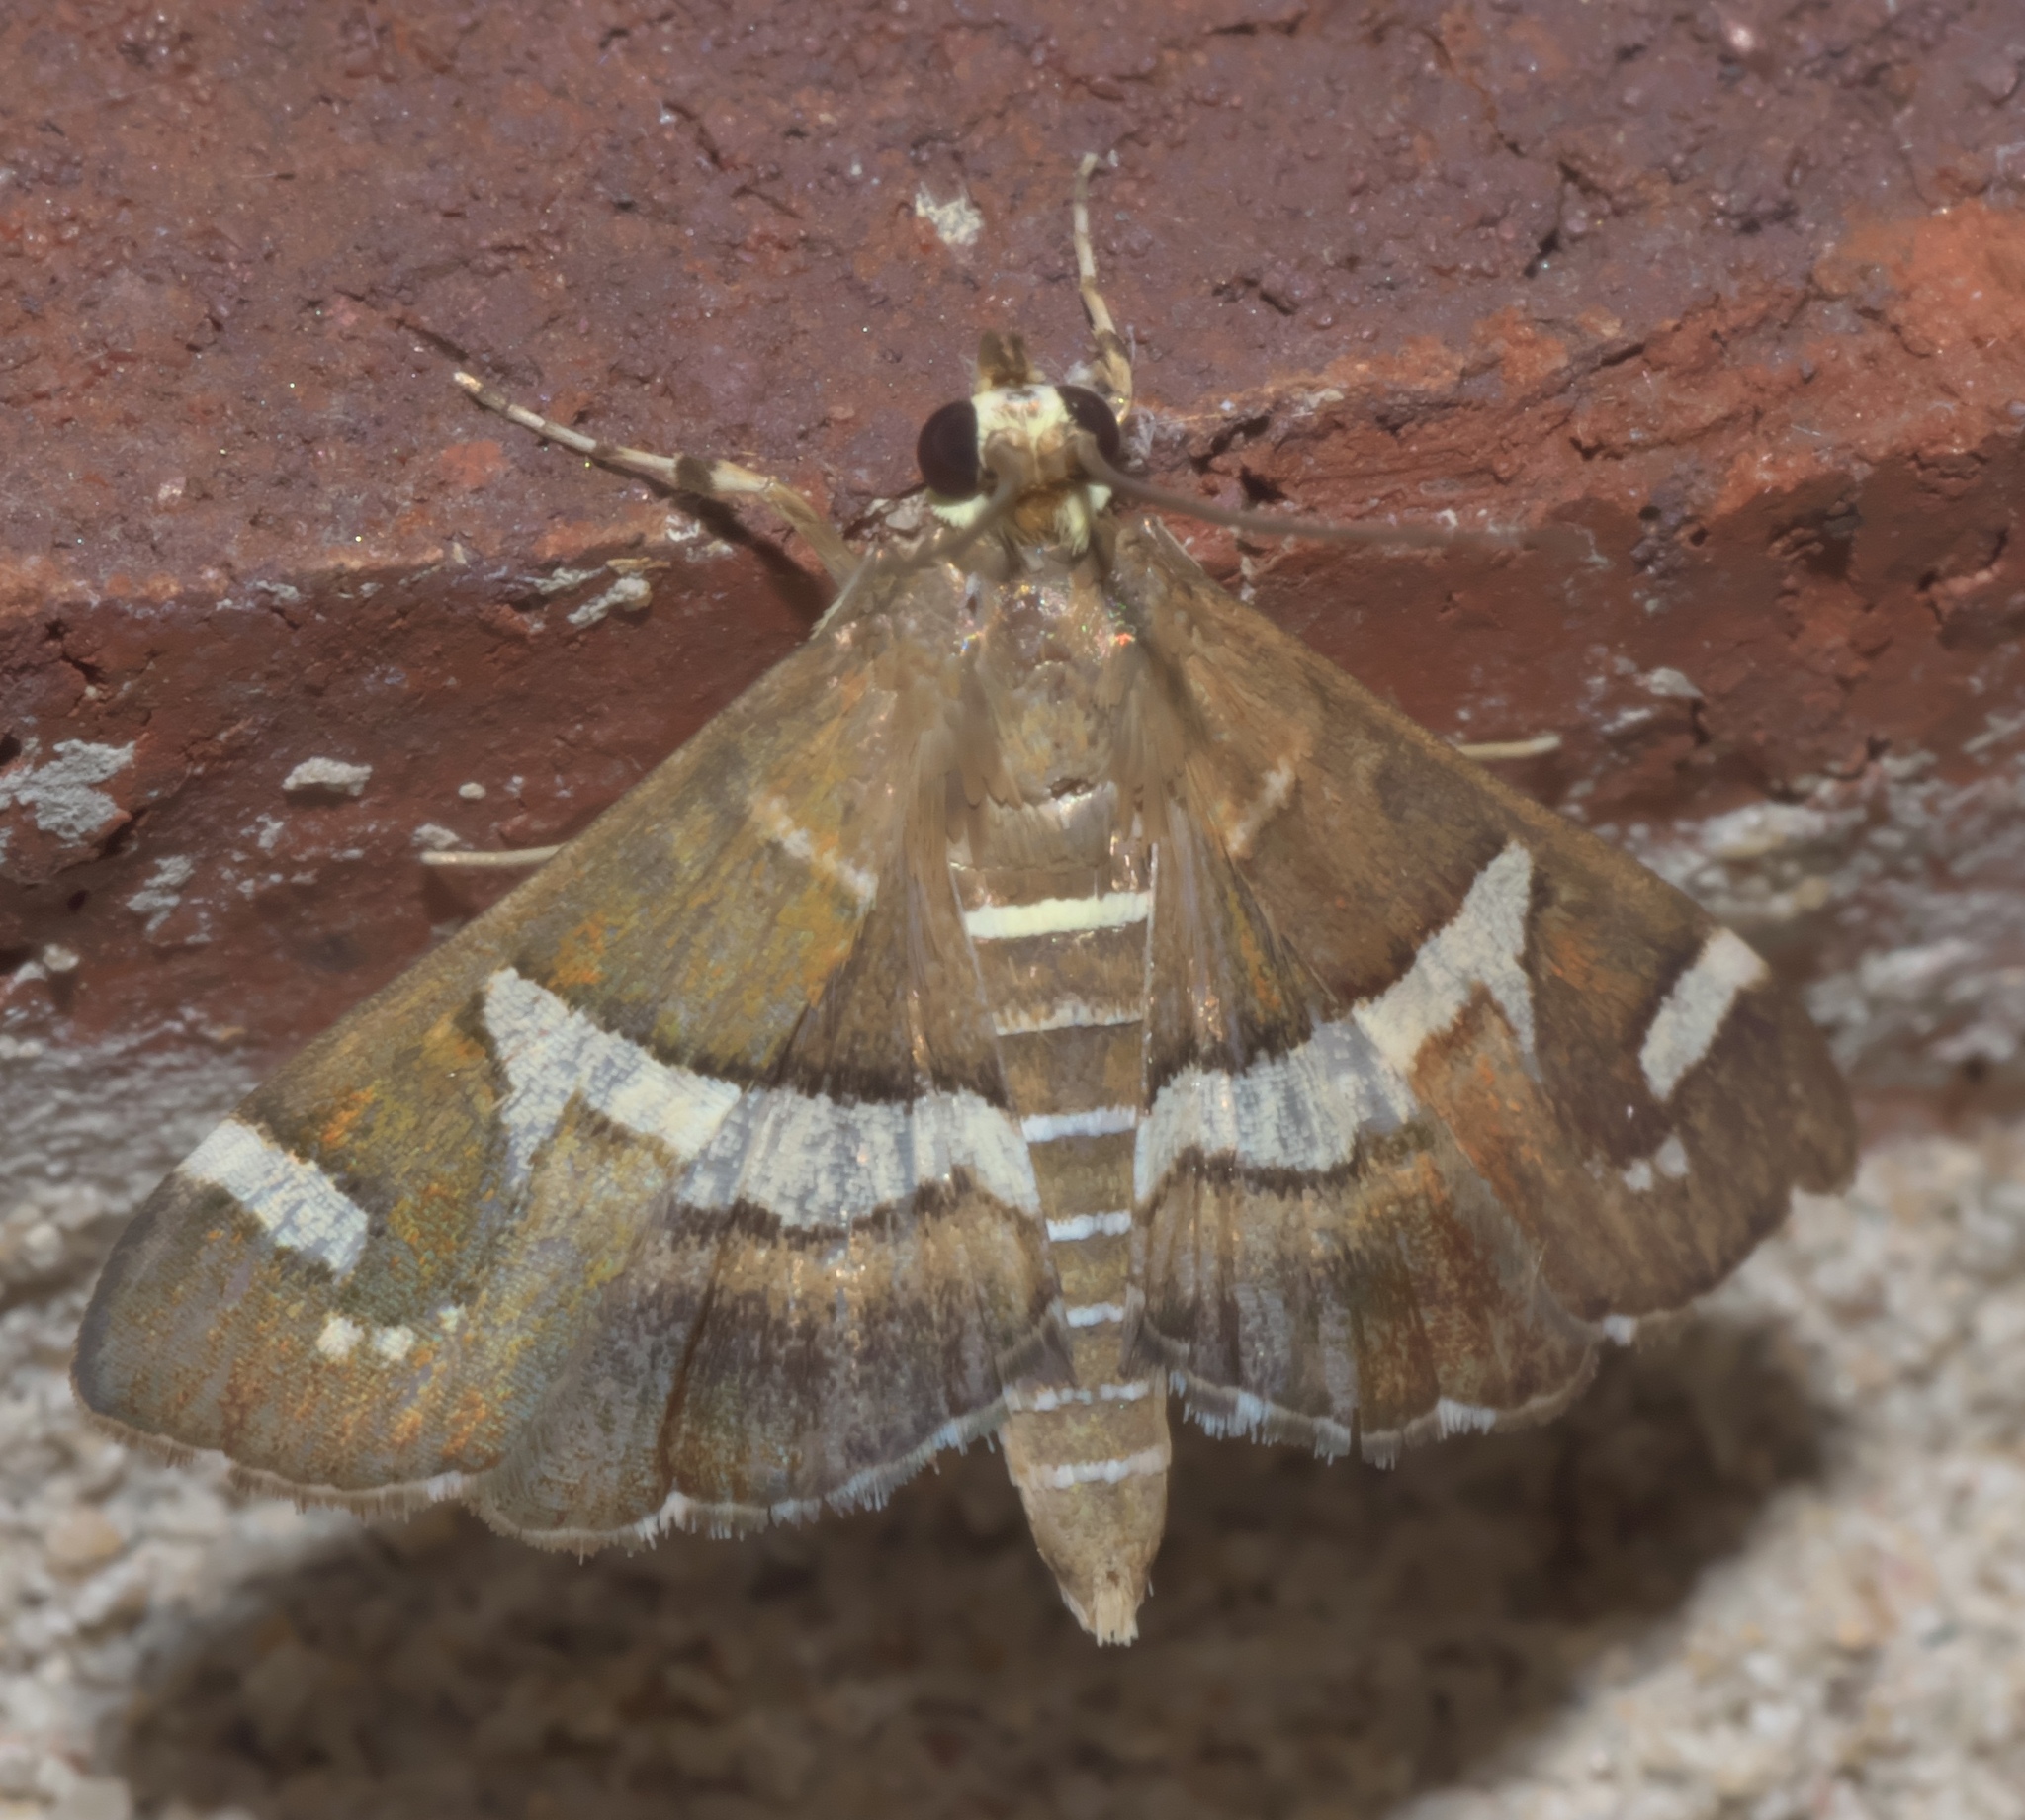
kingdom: Animalia
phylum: Arthropoda
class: Insecta
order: Lepidoptera
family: Crambidae
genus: Spoladea
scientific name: Spoladea recurvalis
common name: Beet webworm moth
